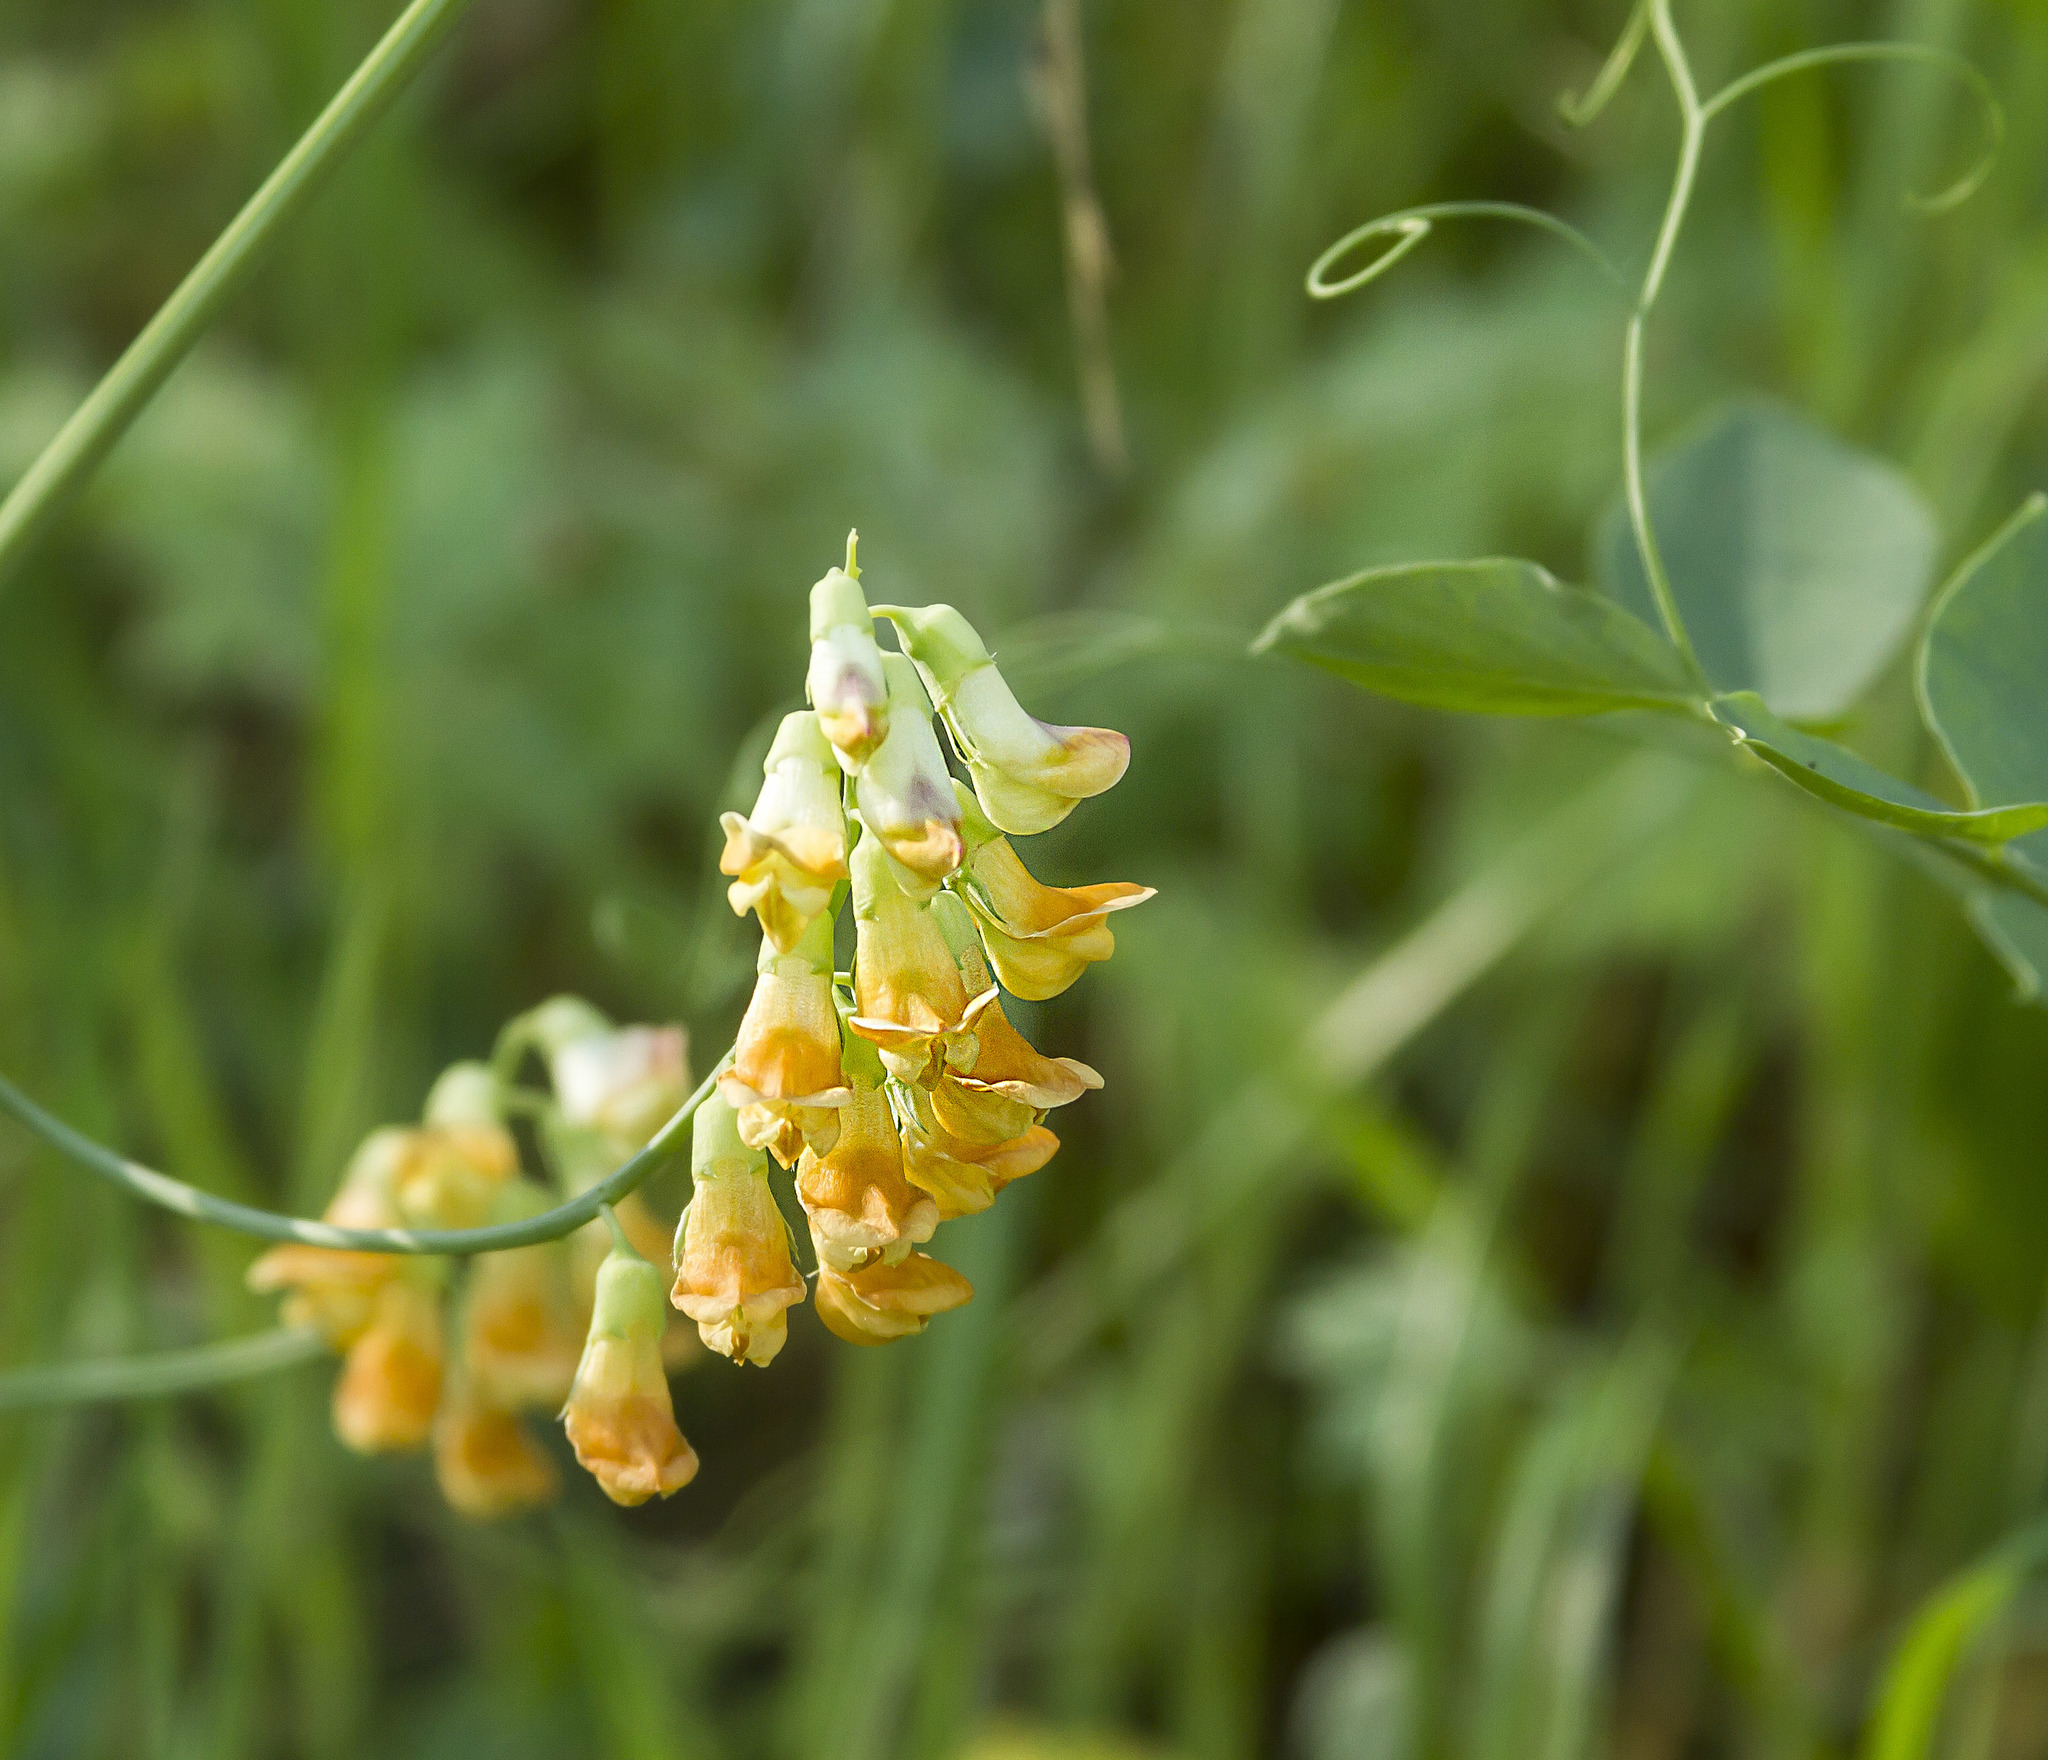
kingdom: Plantae
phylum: Tracheophyta
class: Magnoliopsida
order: Fabales
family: Fabaceae
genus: Lathyrus
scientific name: Lathyrus sulphureus
